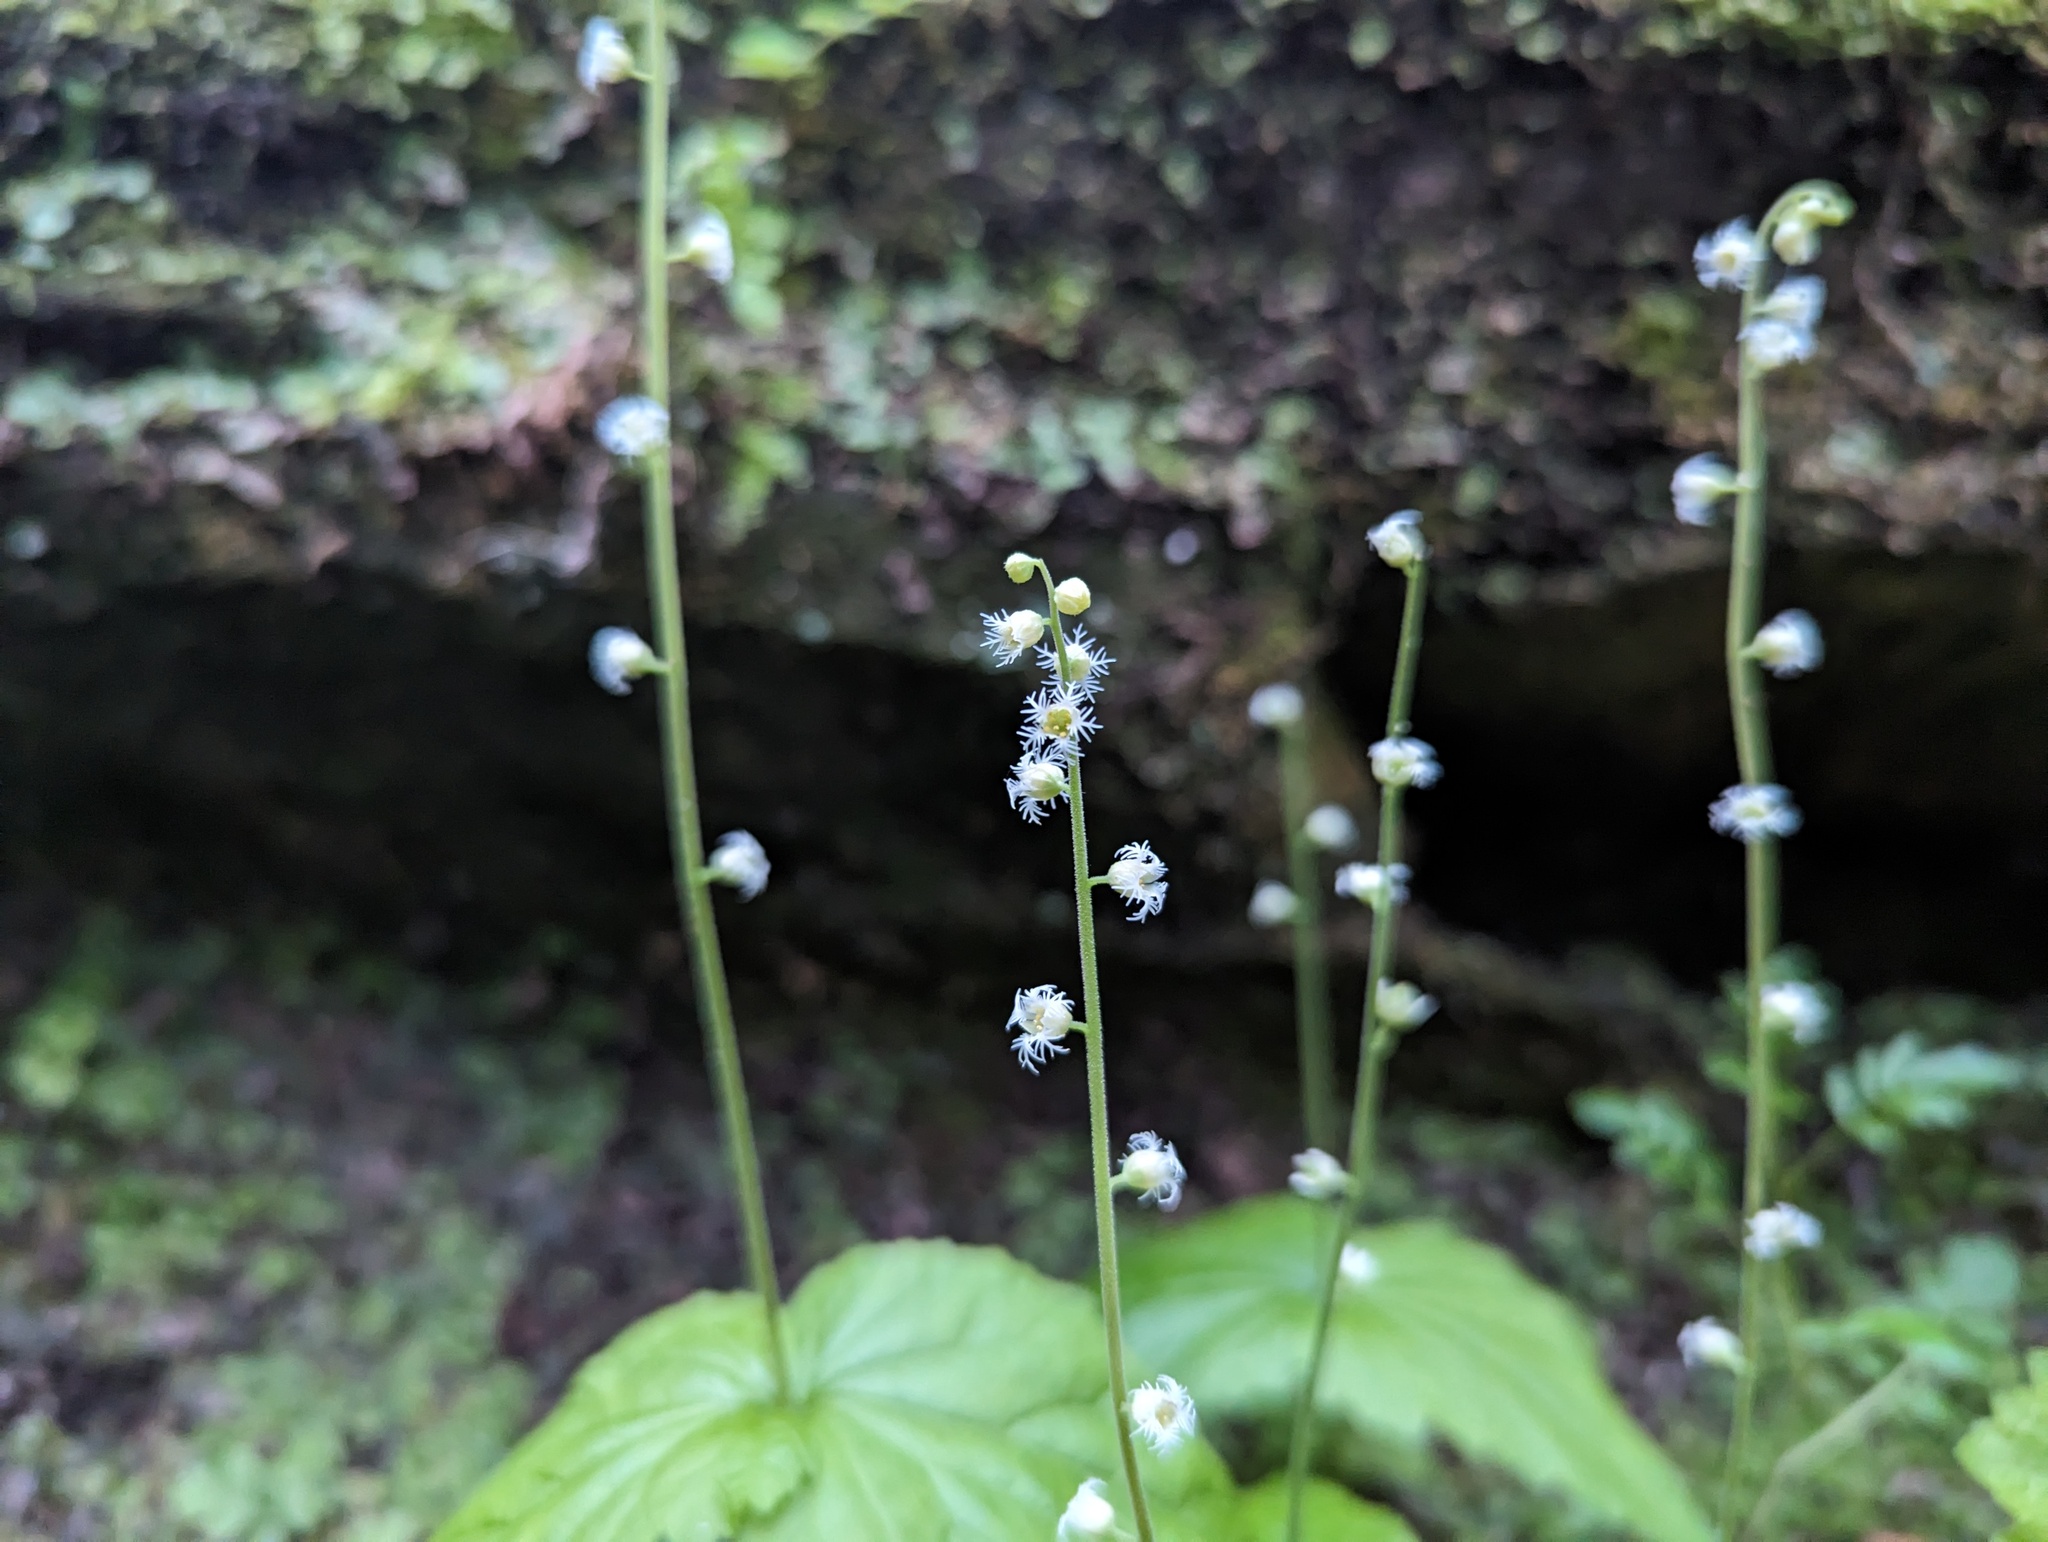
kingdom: Plantae
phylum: Tracheophyta
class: Magnoliopsida
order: Saxifragales
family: Saxifragaceae
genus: Mitella
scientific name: Mitella diphylla
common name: Coolwort
